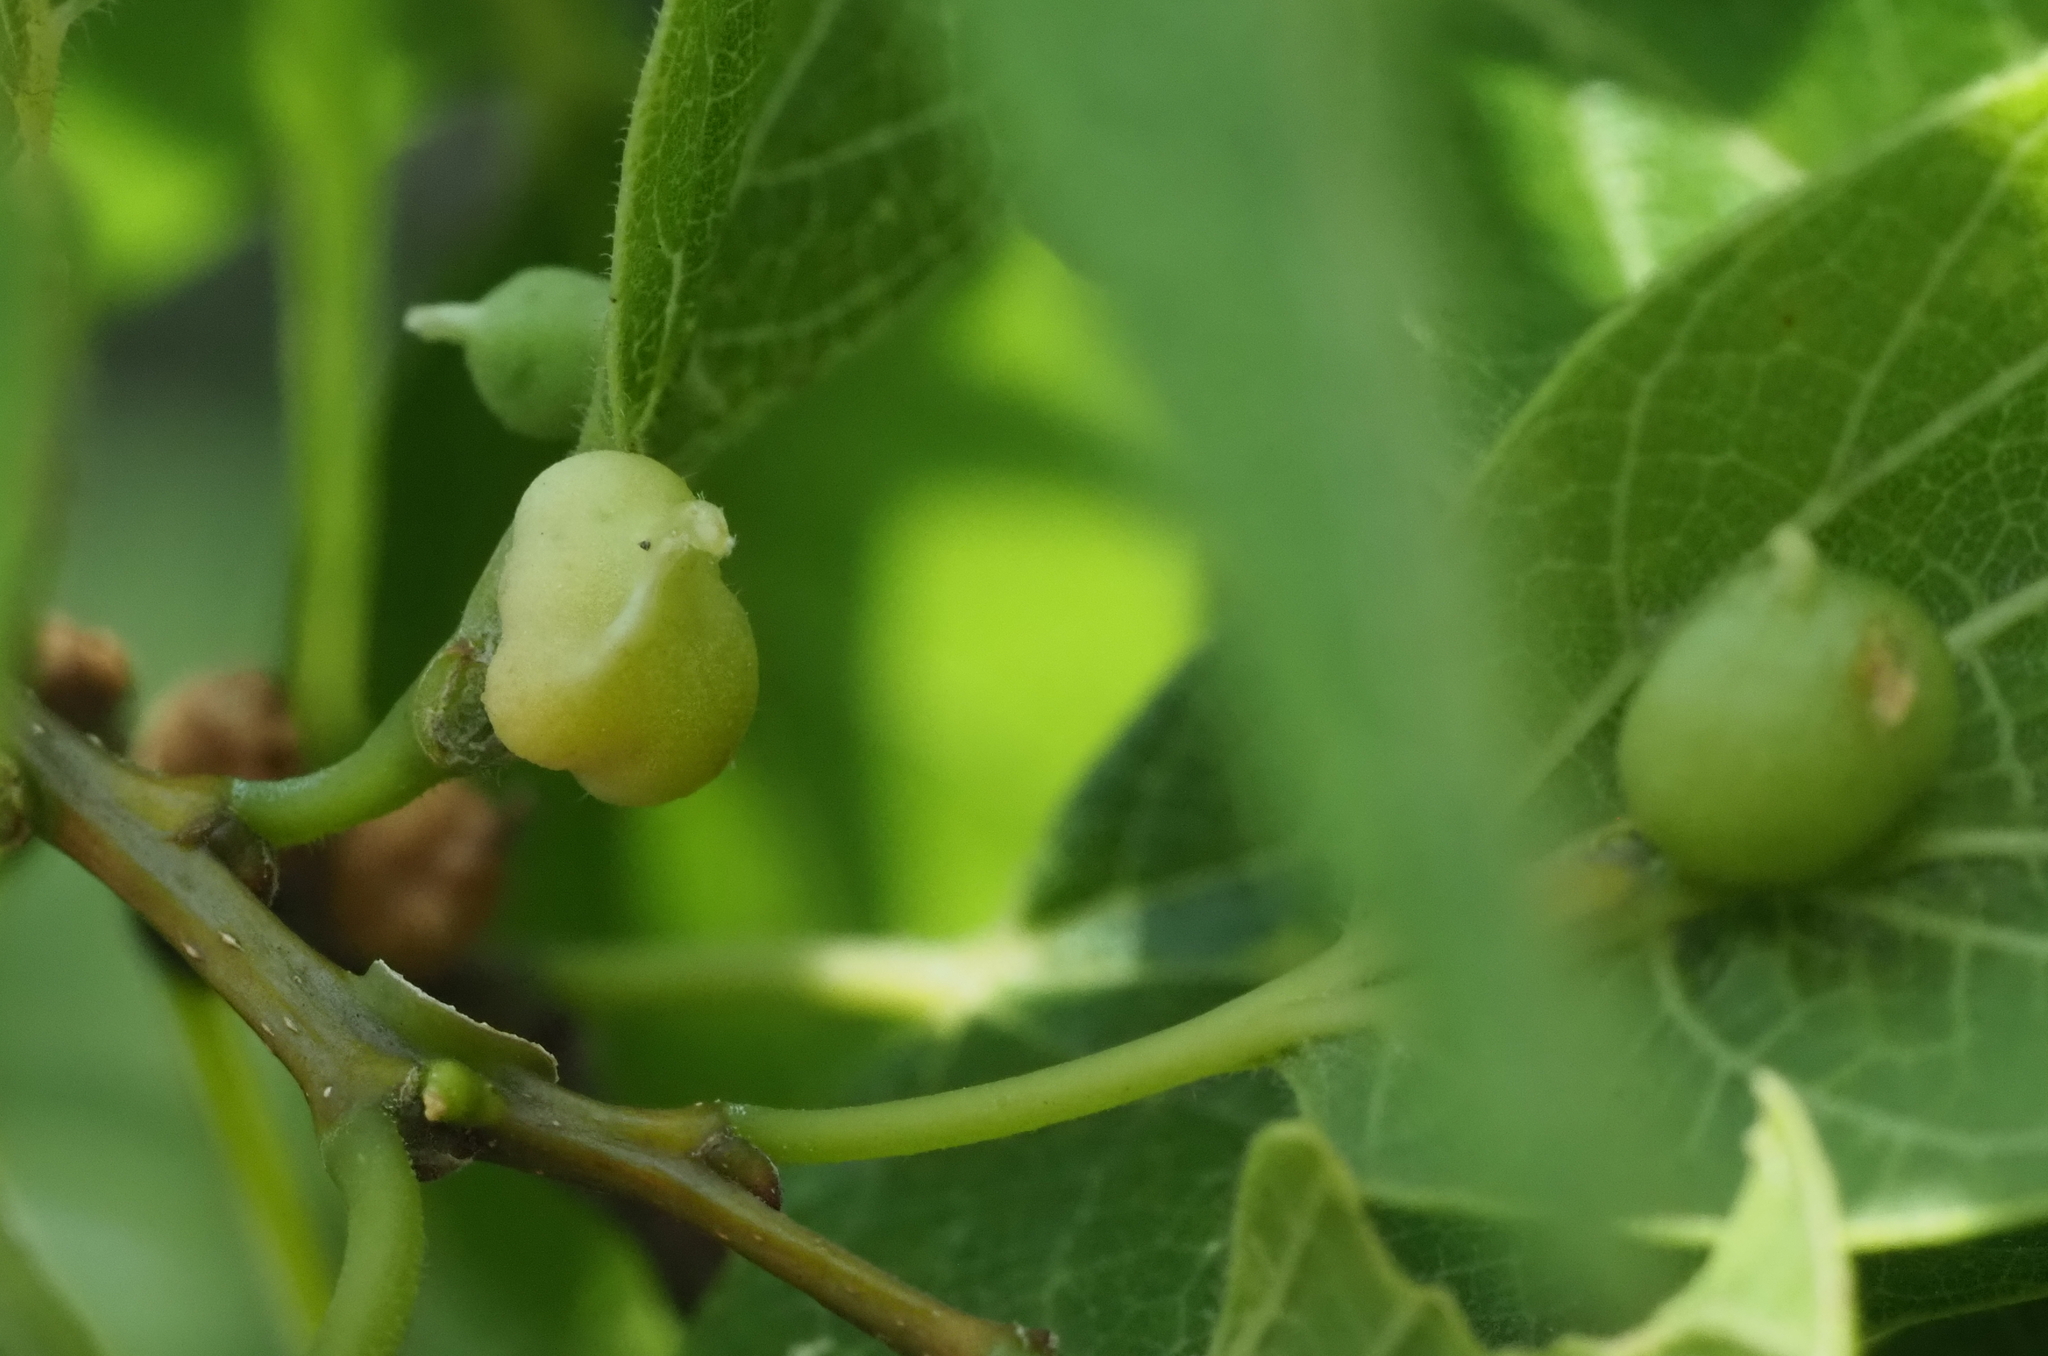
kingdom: Animalia
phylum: Arthropoda
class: Insecta
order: Diptera
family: Cecidomyiidae
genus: Celticecis
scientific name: Celticecis connata
